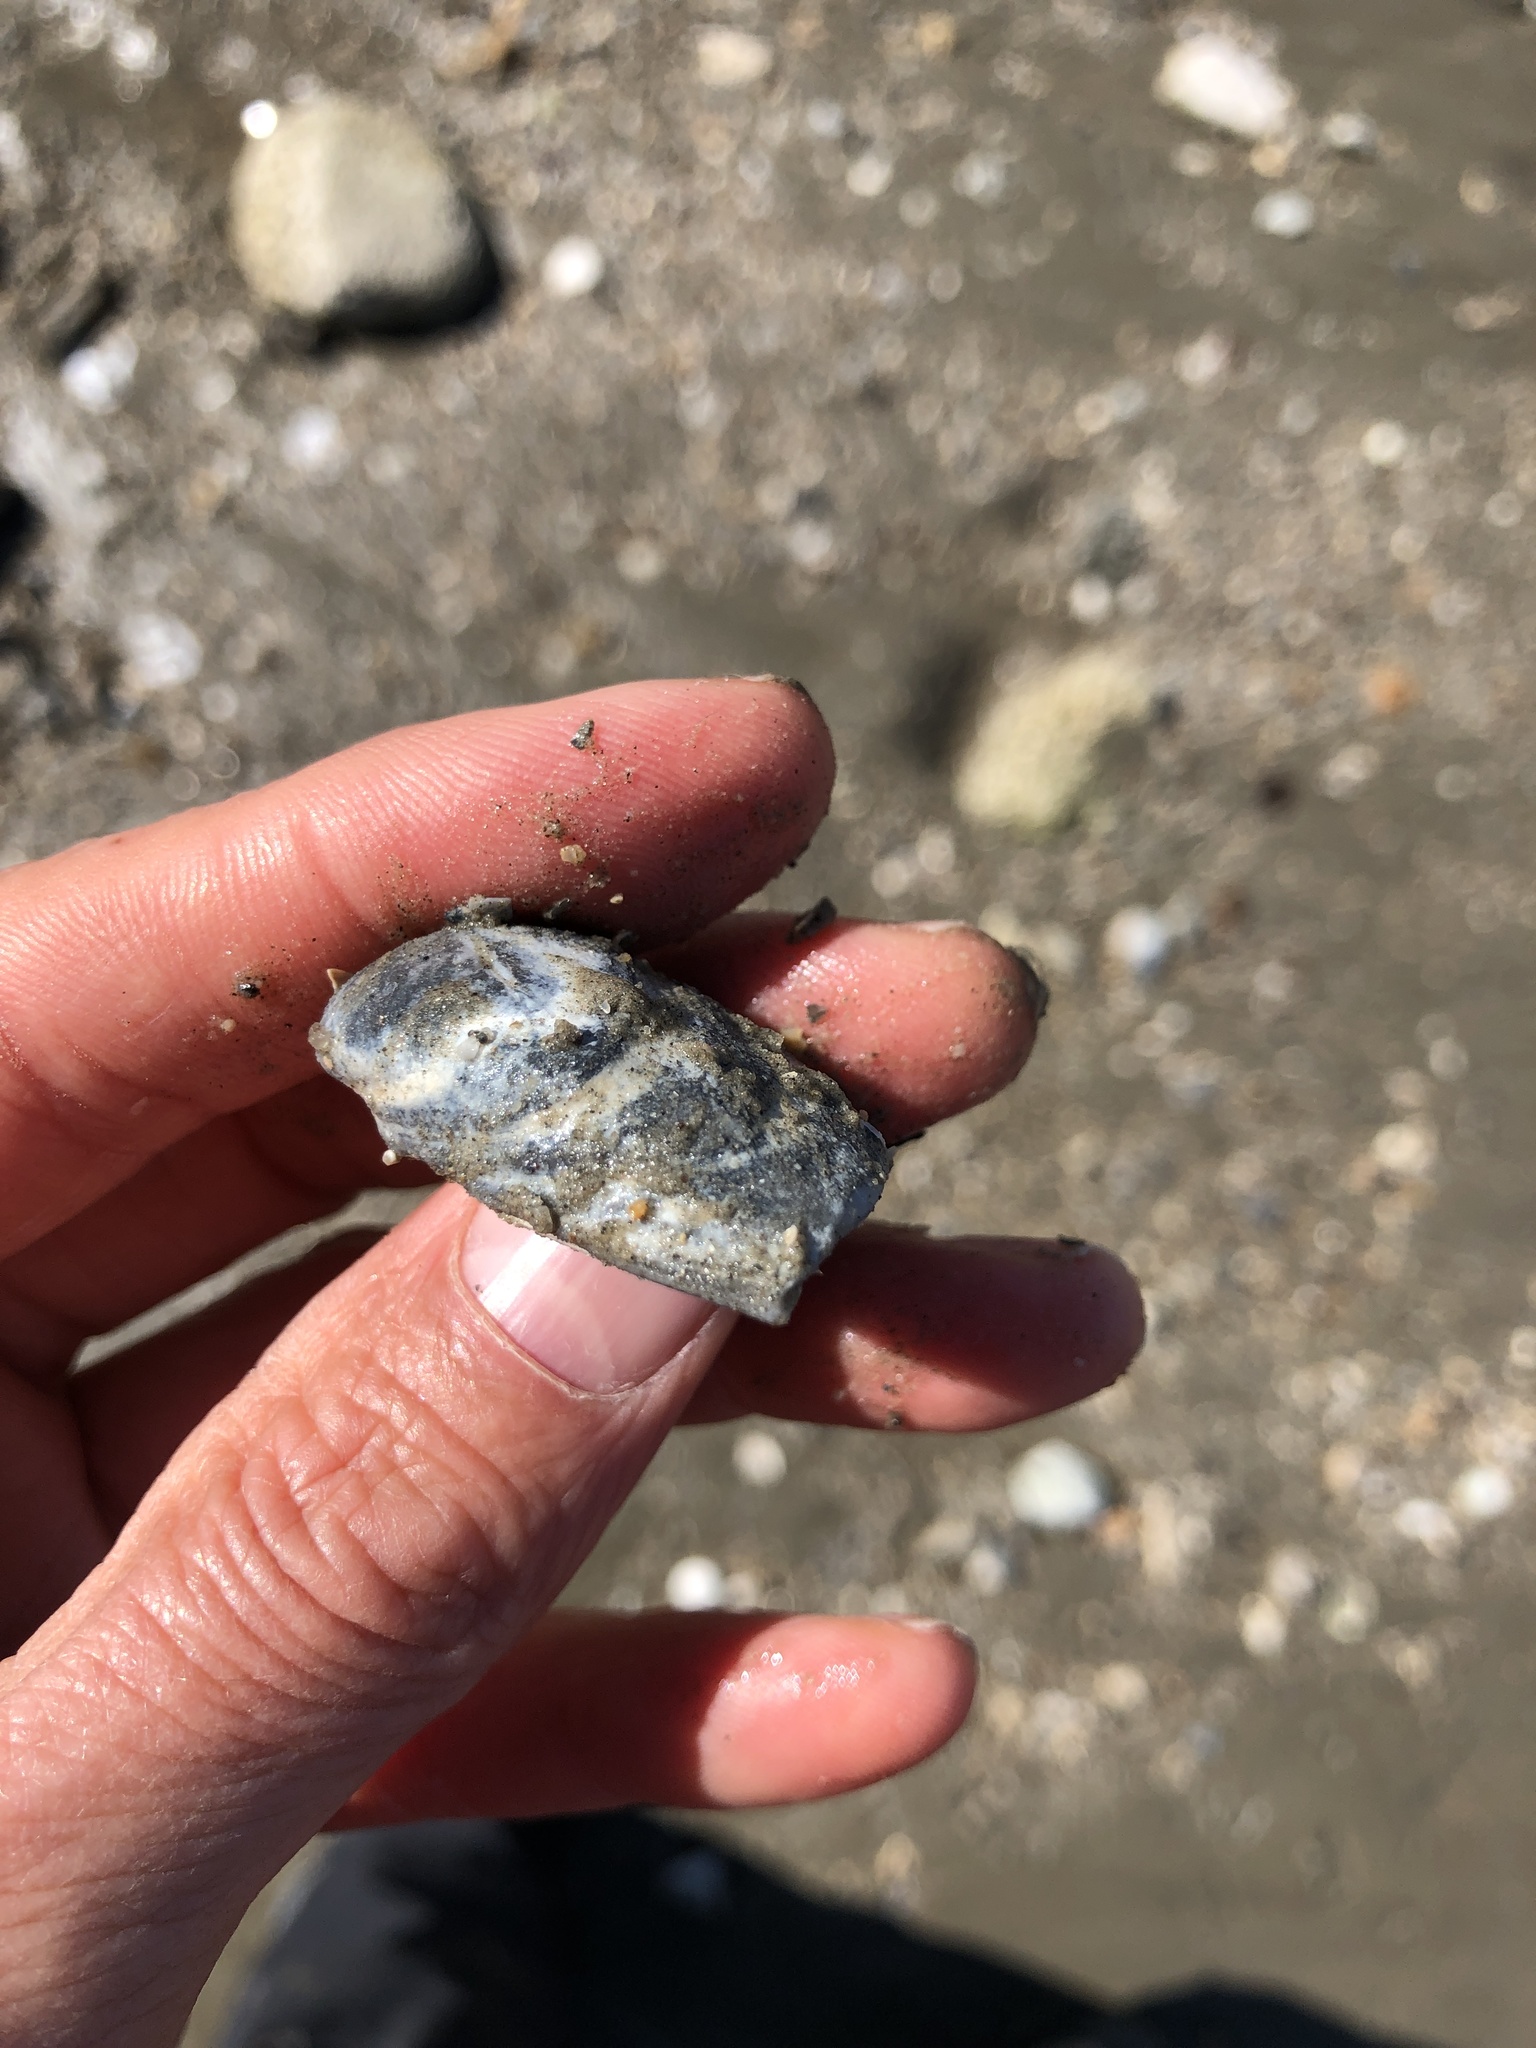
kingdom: Animalia
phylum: Mollusca
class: Bivalvia
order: Venerida
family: Mactridae
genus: Rangia
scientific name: Rangia cuneata
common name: Atlantic rangia
